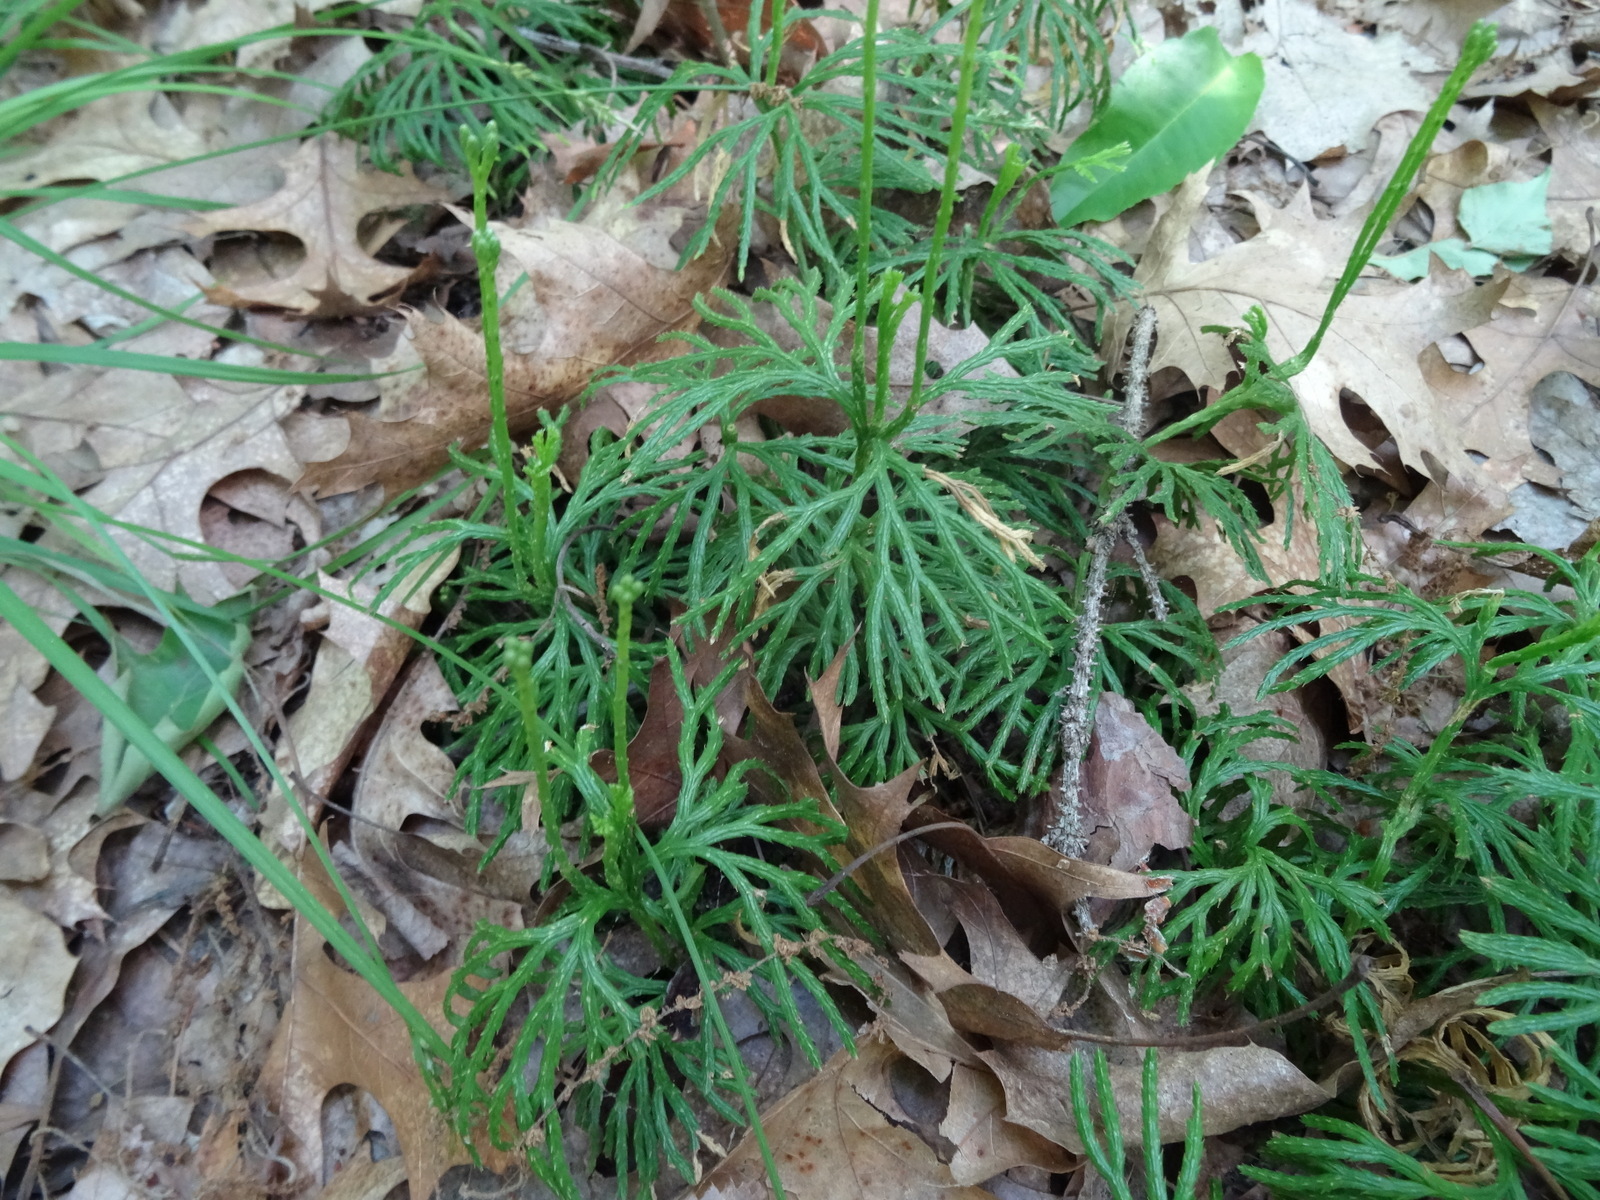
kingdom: Plantae
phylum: Tracheophyta
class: Lycopodiopsida
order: Lycopodiales
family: Lycopodiaceae
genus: Diphasiastrum
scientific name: Diphasiastrum digitatum
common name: Southern running-pine
